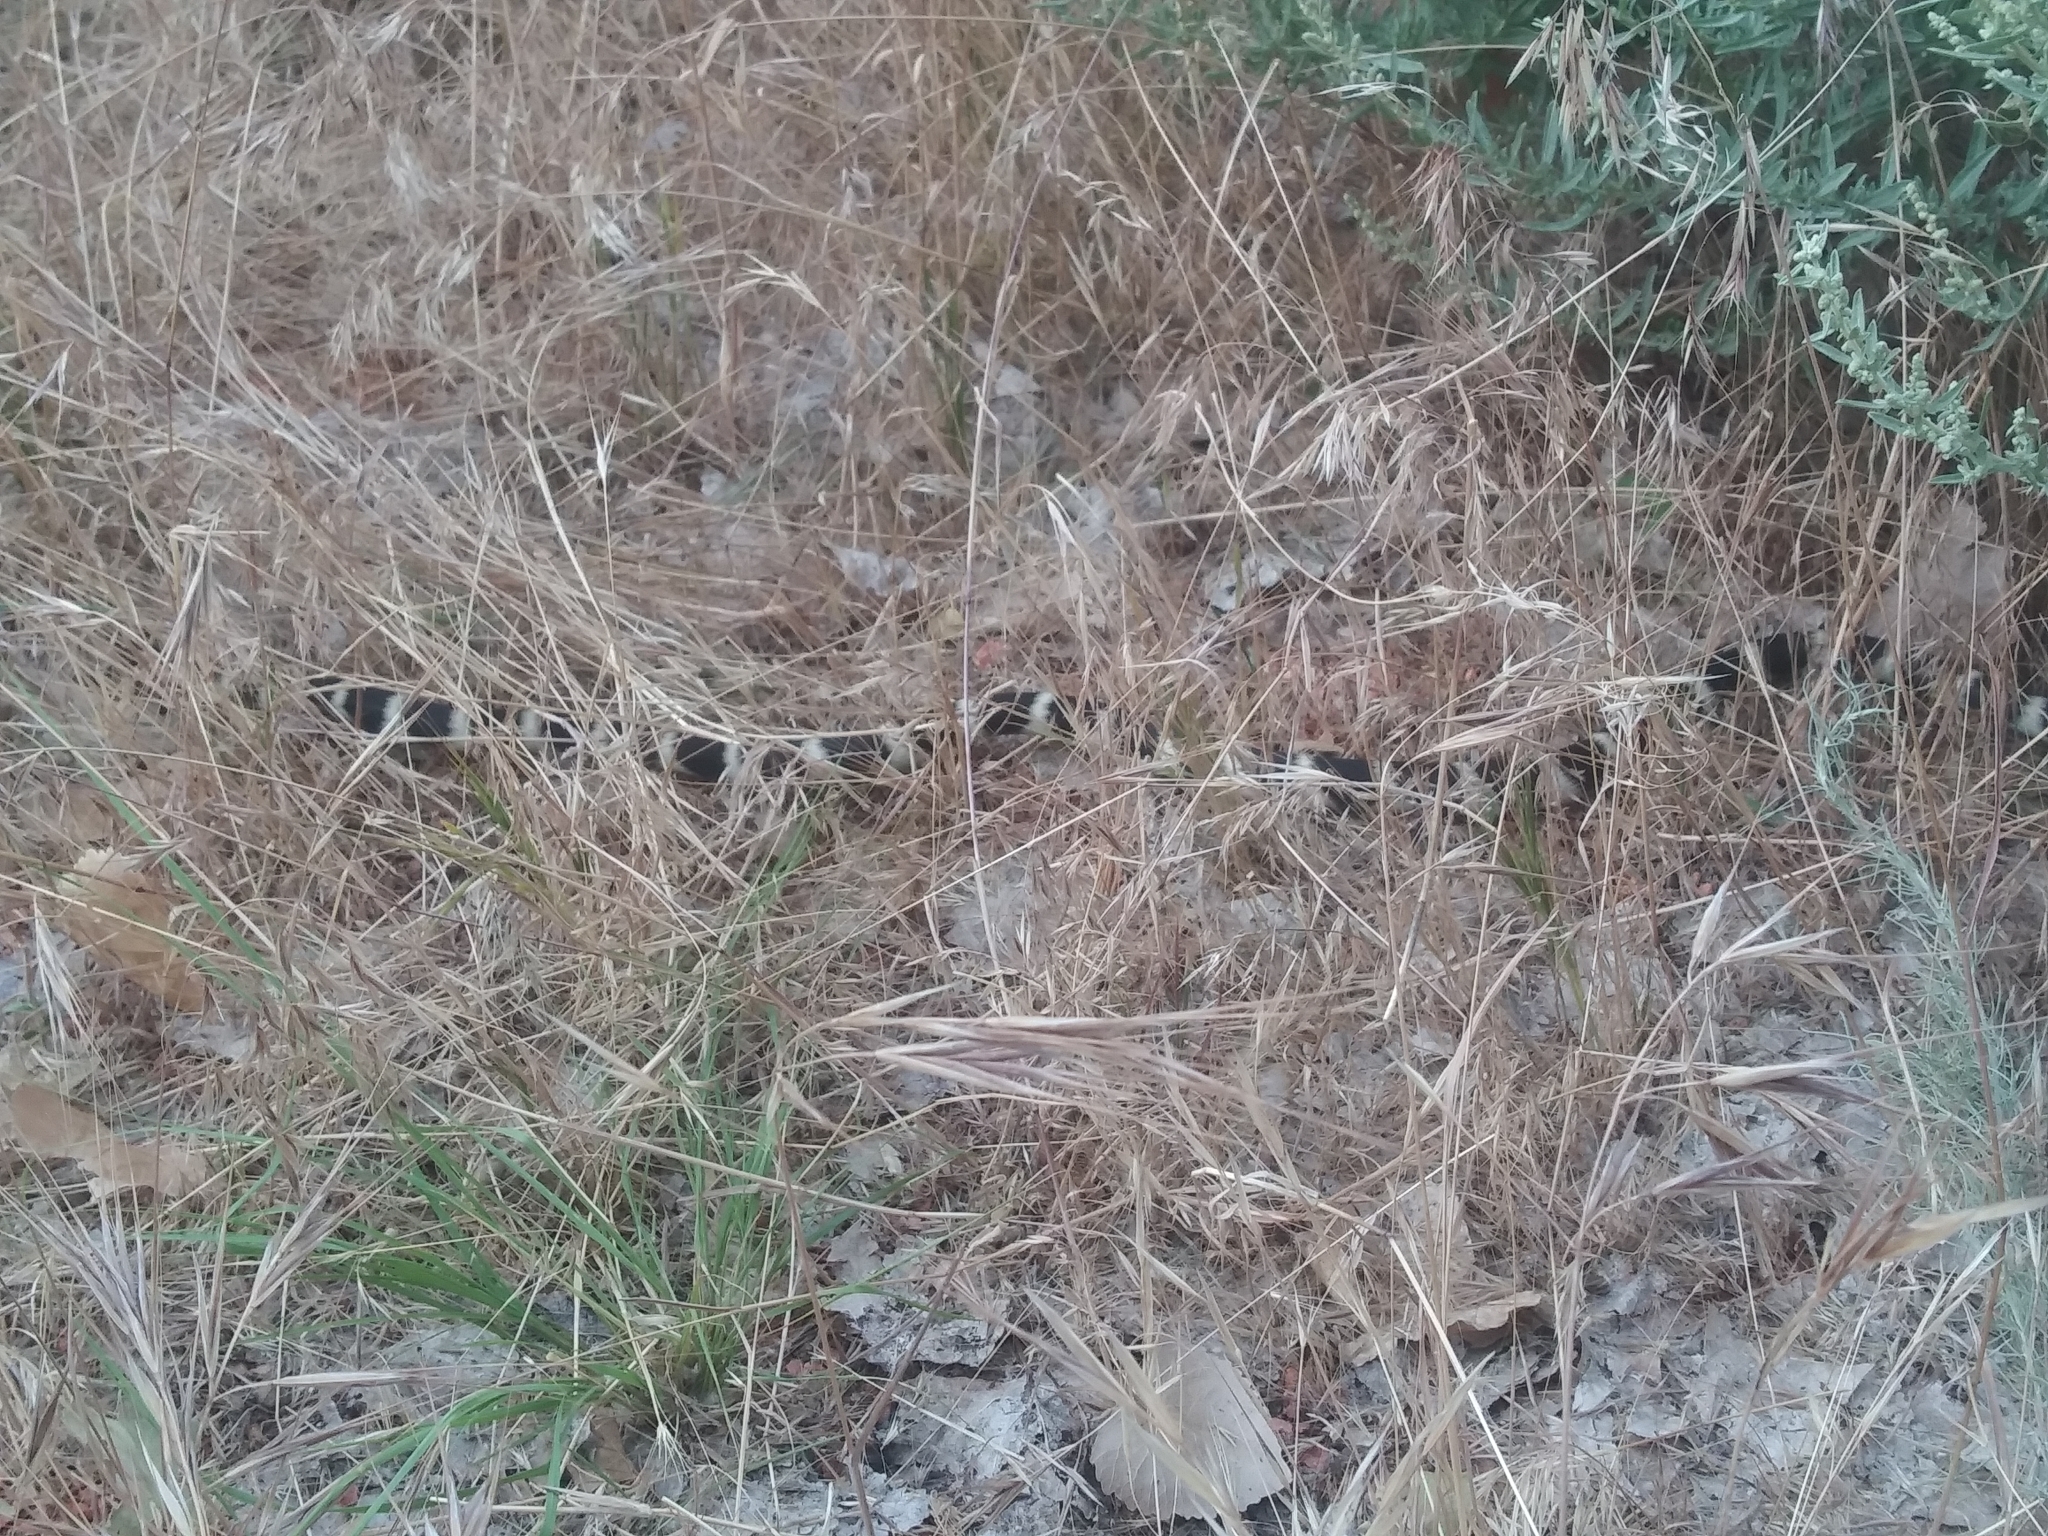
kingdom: Animalia
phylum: Chordata
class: Squamata
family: Colubridae
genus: Lampropeltis
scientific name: Lampropeltis californiae
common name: California kingsnake
